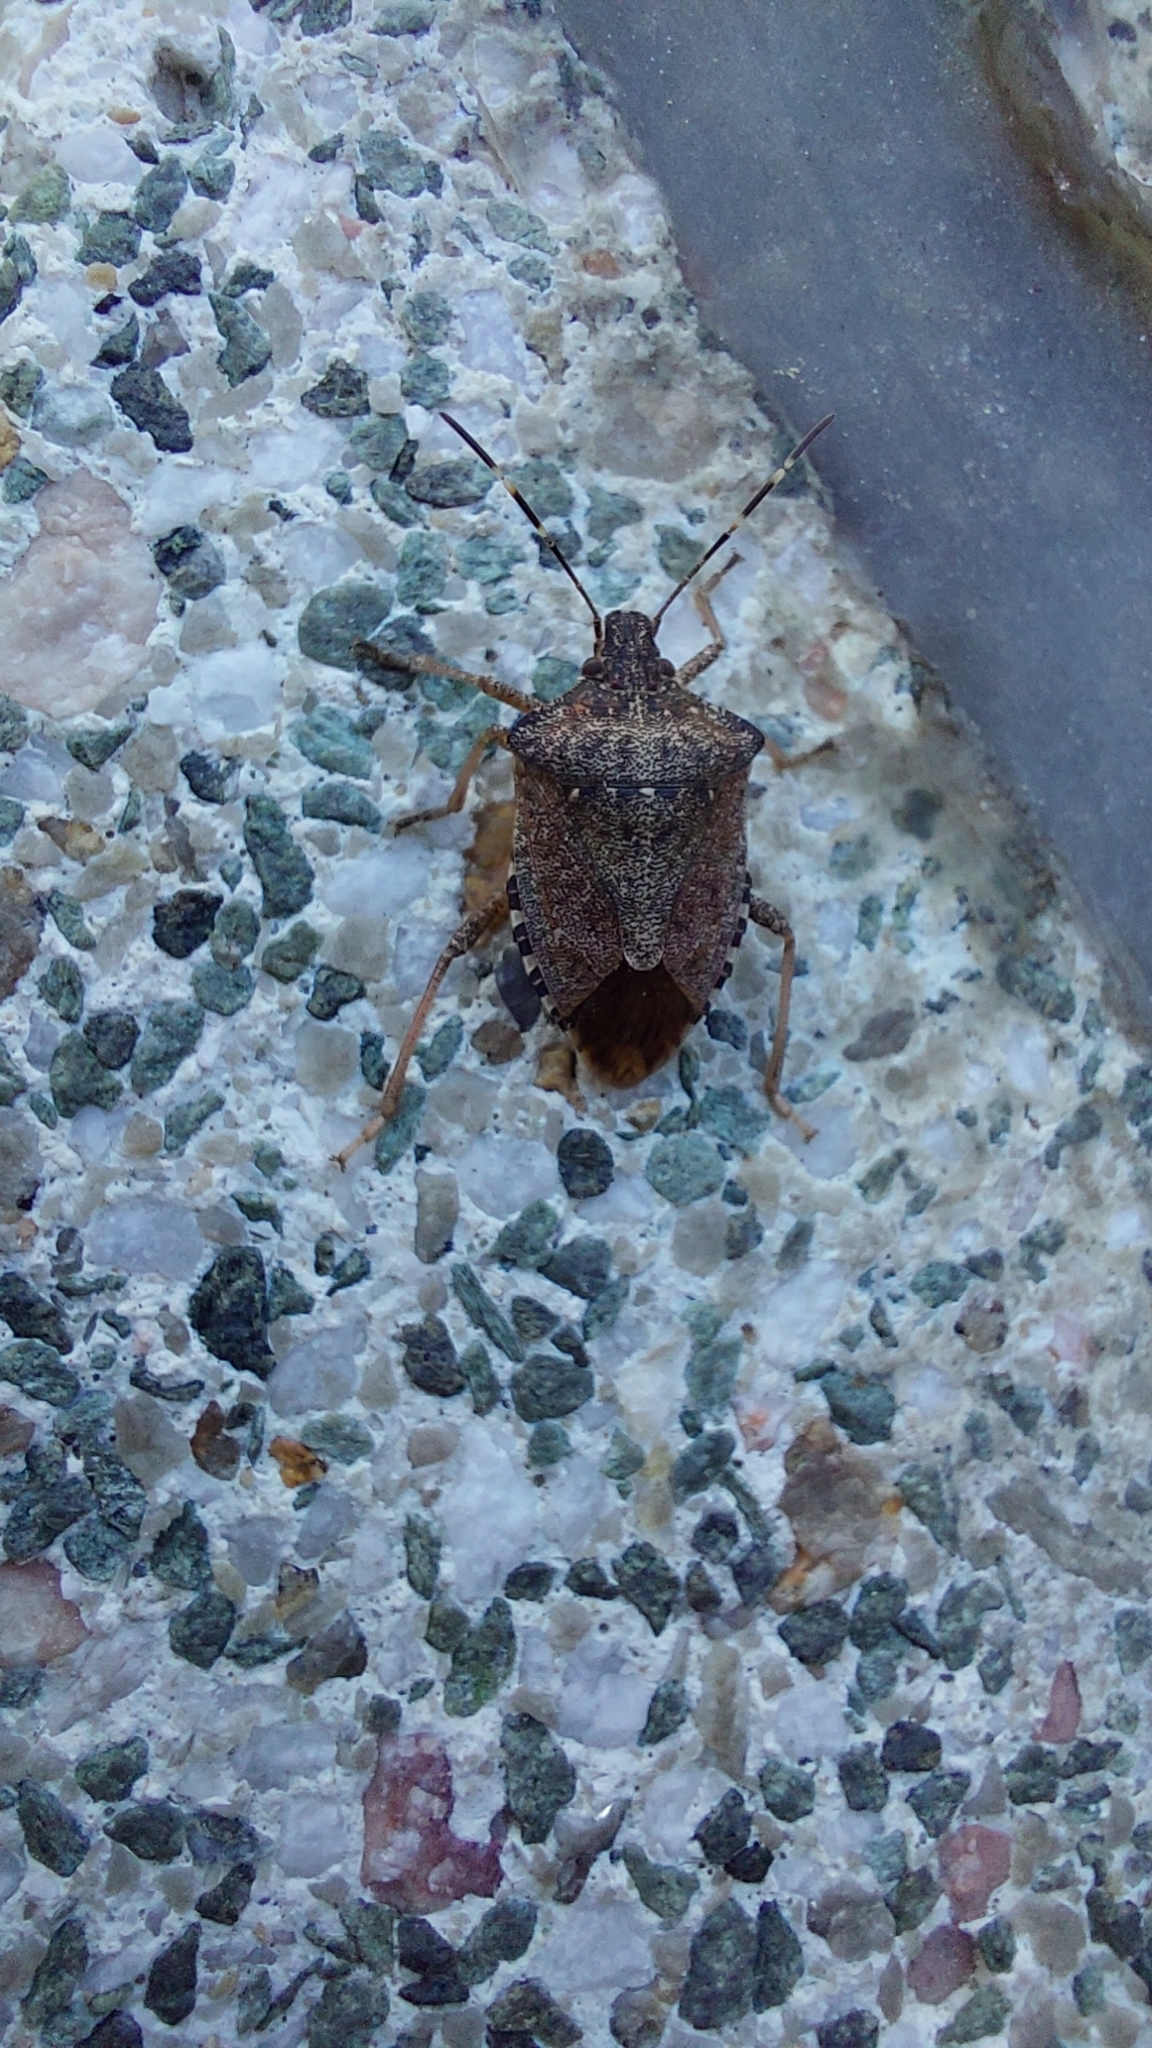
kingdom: Animalia
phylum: Arthropoda
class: Insecta
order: Hemiptera
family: Pentatomidae
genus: Halyomorpha
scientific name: Halyomorpha halys
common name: Brown marmorated stink bug
